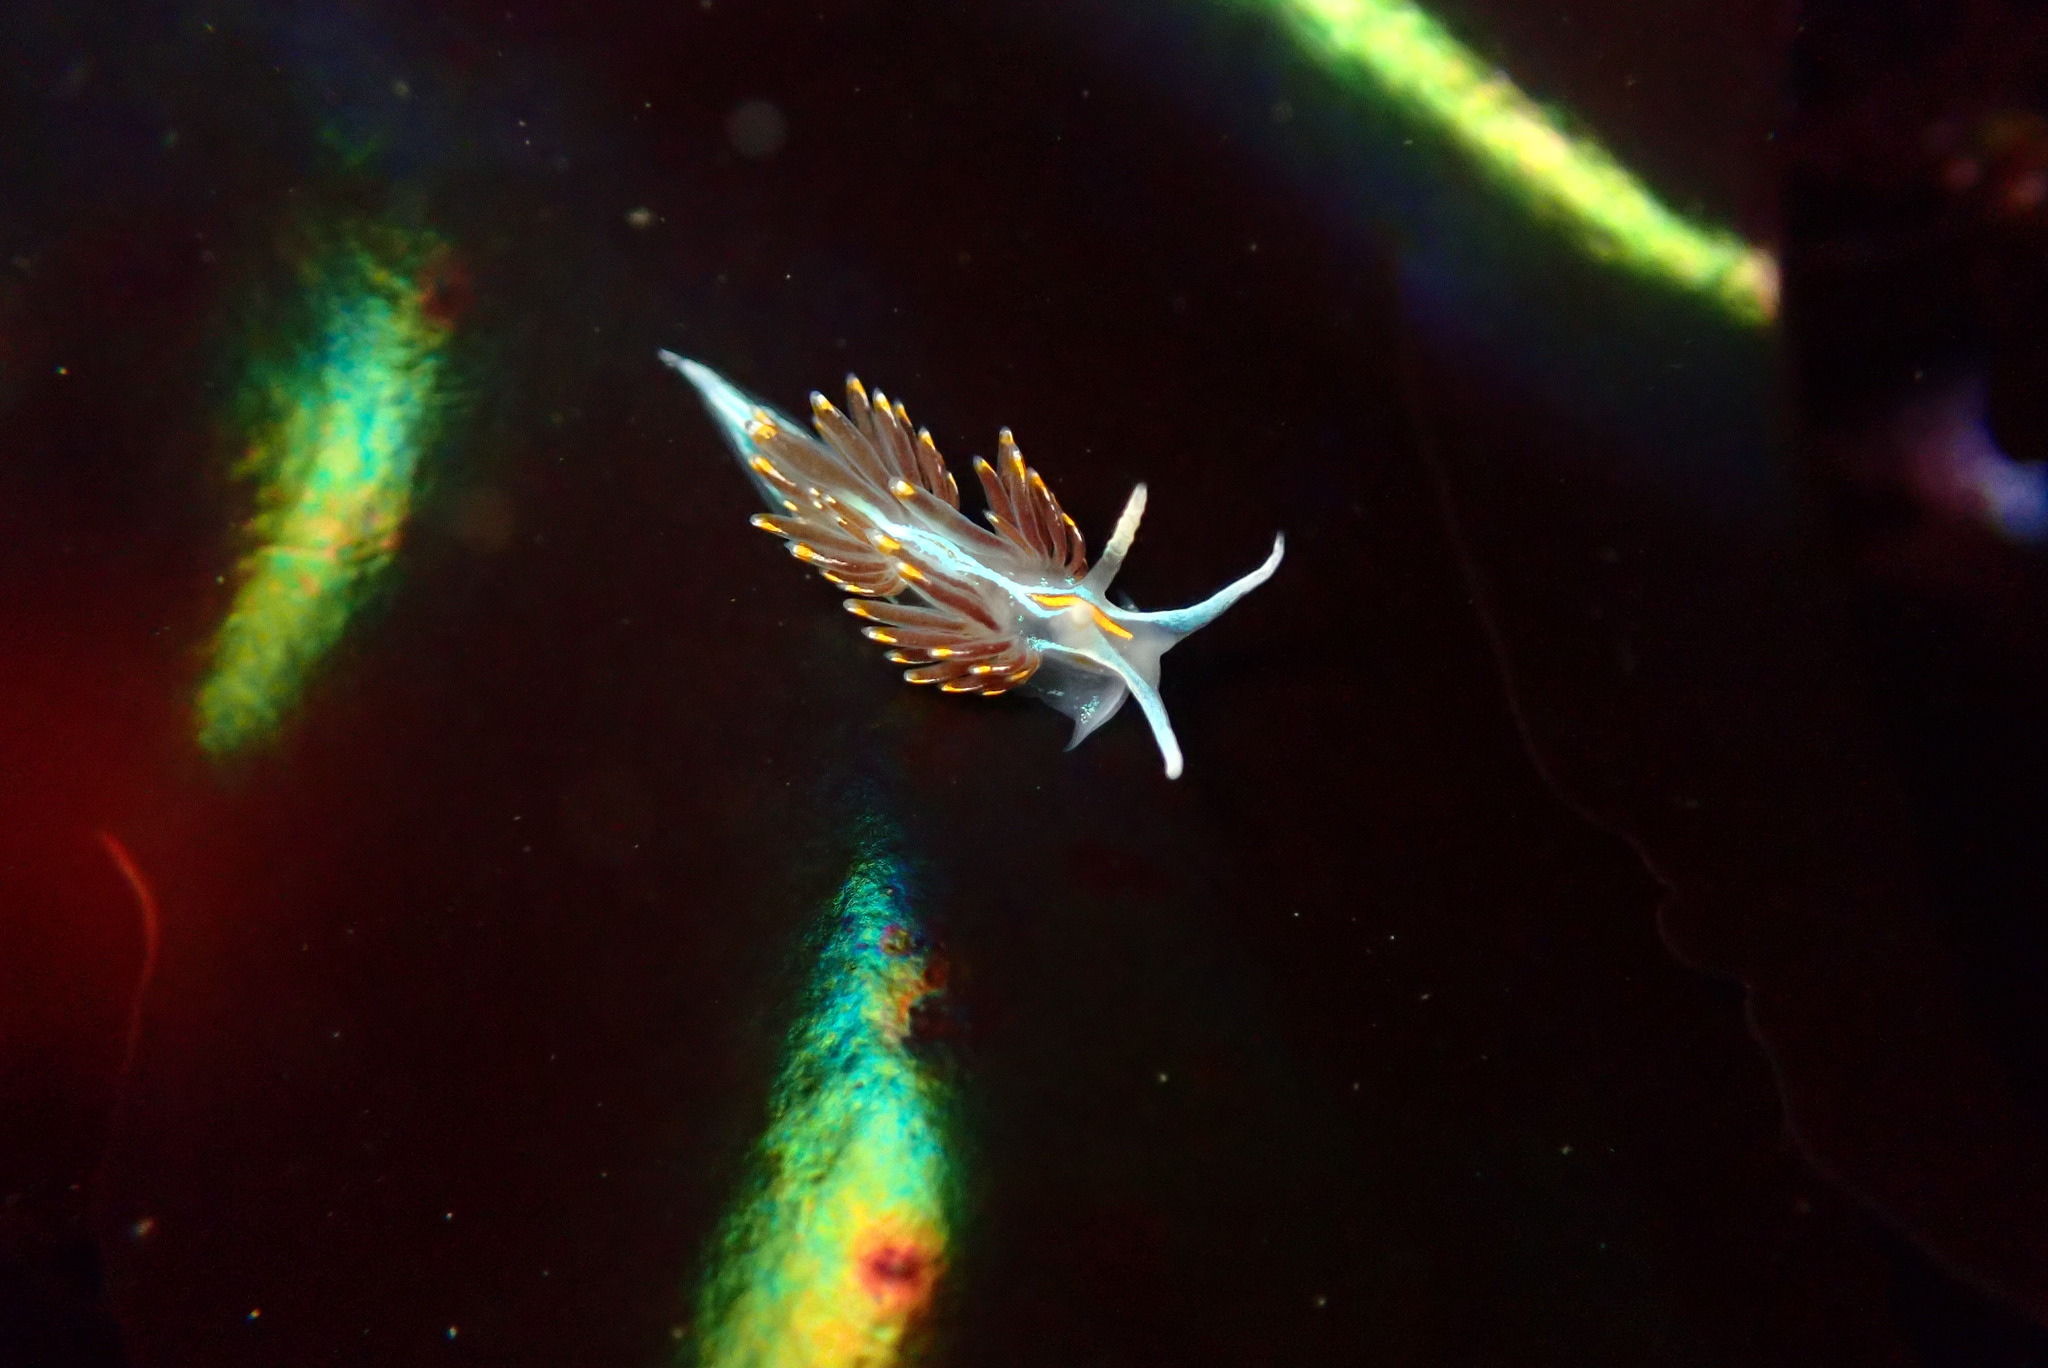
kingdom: Animalia
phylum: Mollusca
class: Gastropoda
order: Nudibranchia
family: Myrrhinidae
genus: Hermissenda
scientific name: Hermissenda opalescens
